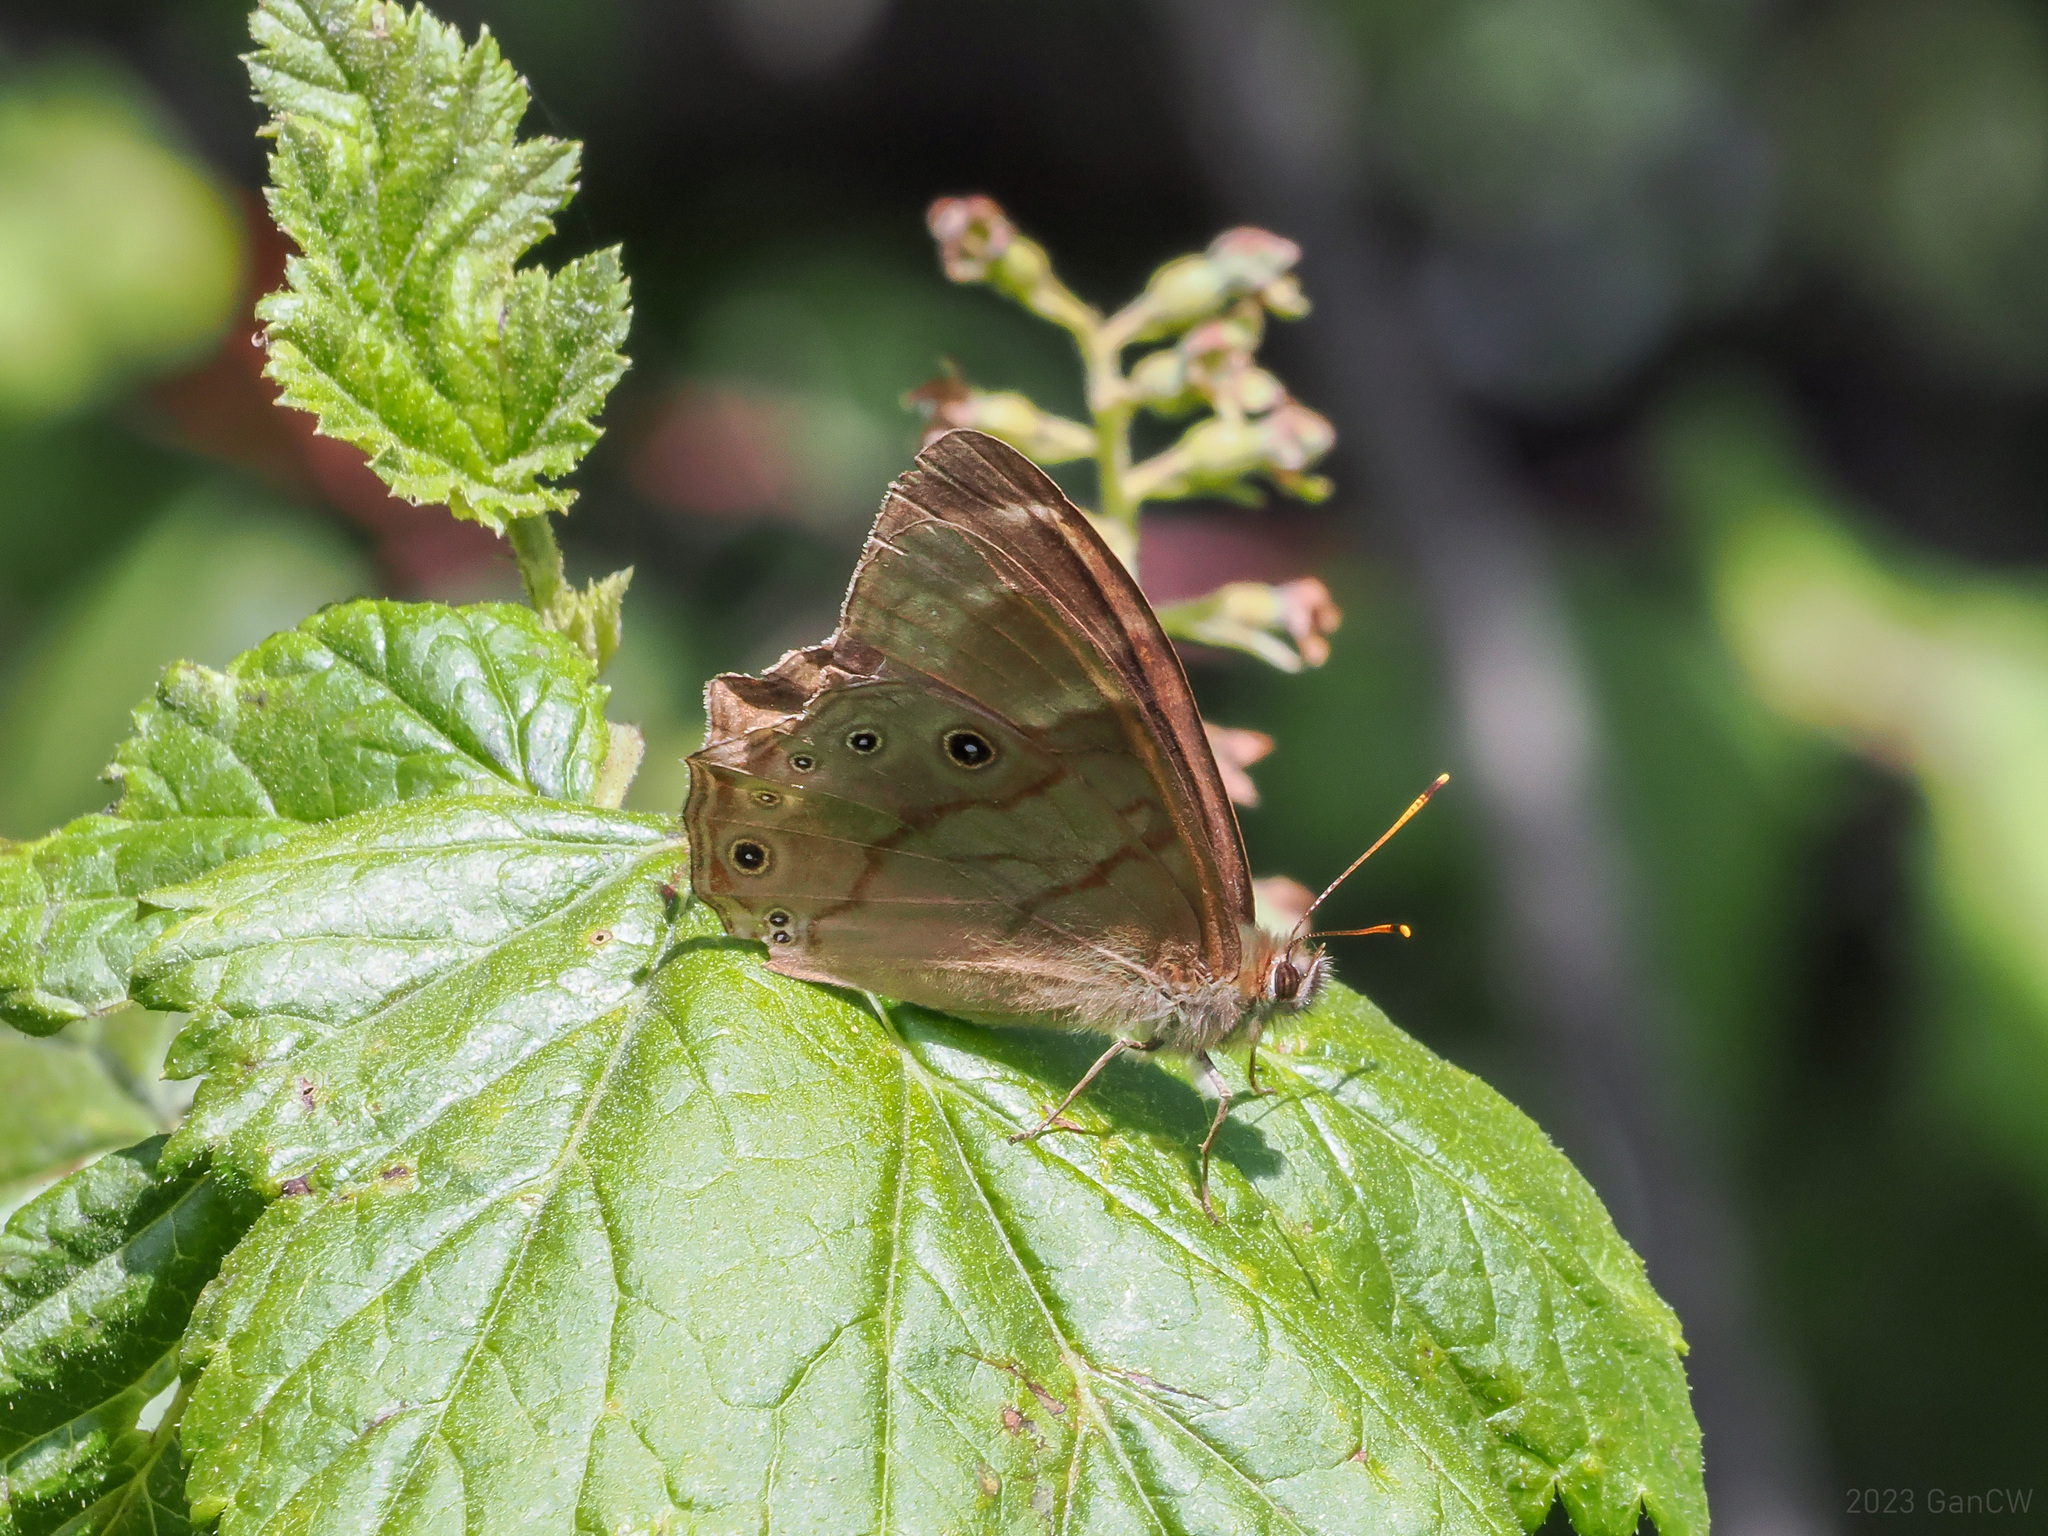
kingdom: Animalia
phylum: Arthropoda
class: Insecta
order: Lepidoptera
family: Nymphalidae
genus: Lethe
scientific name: Lethe
